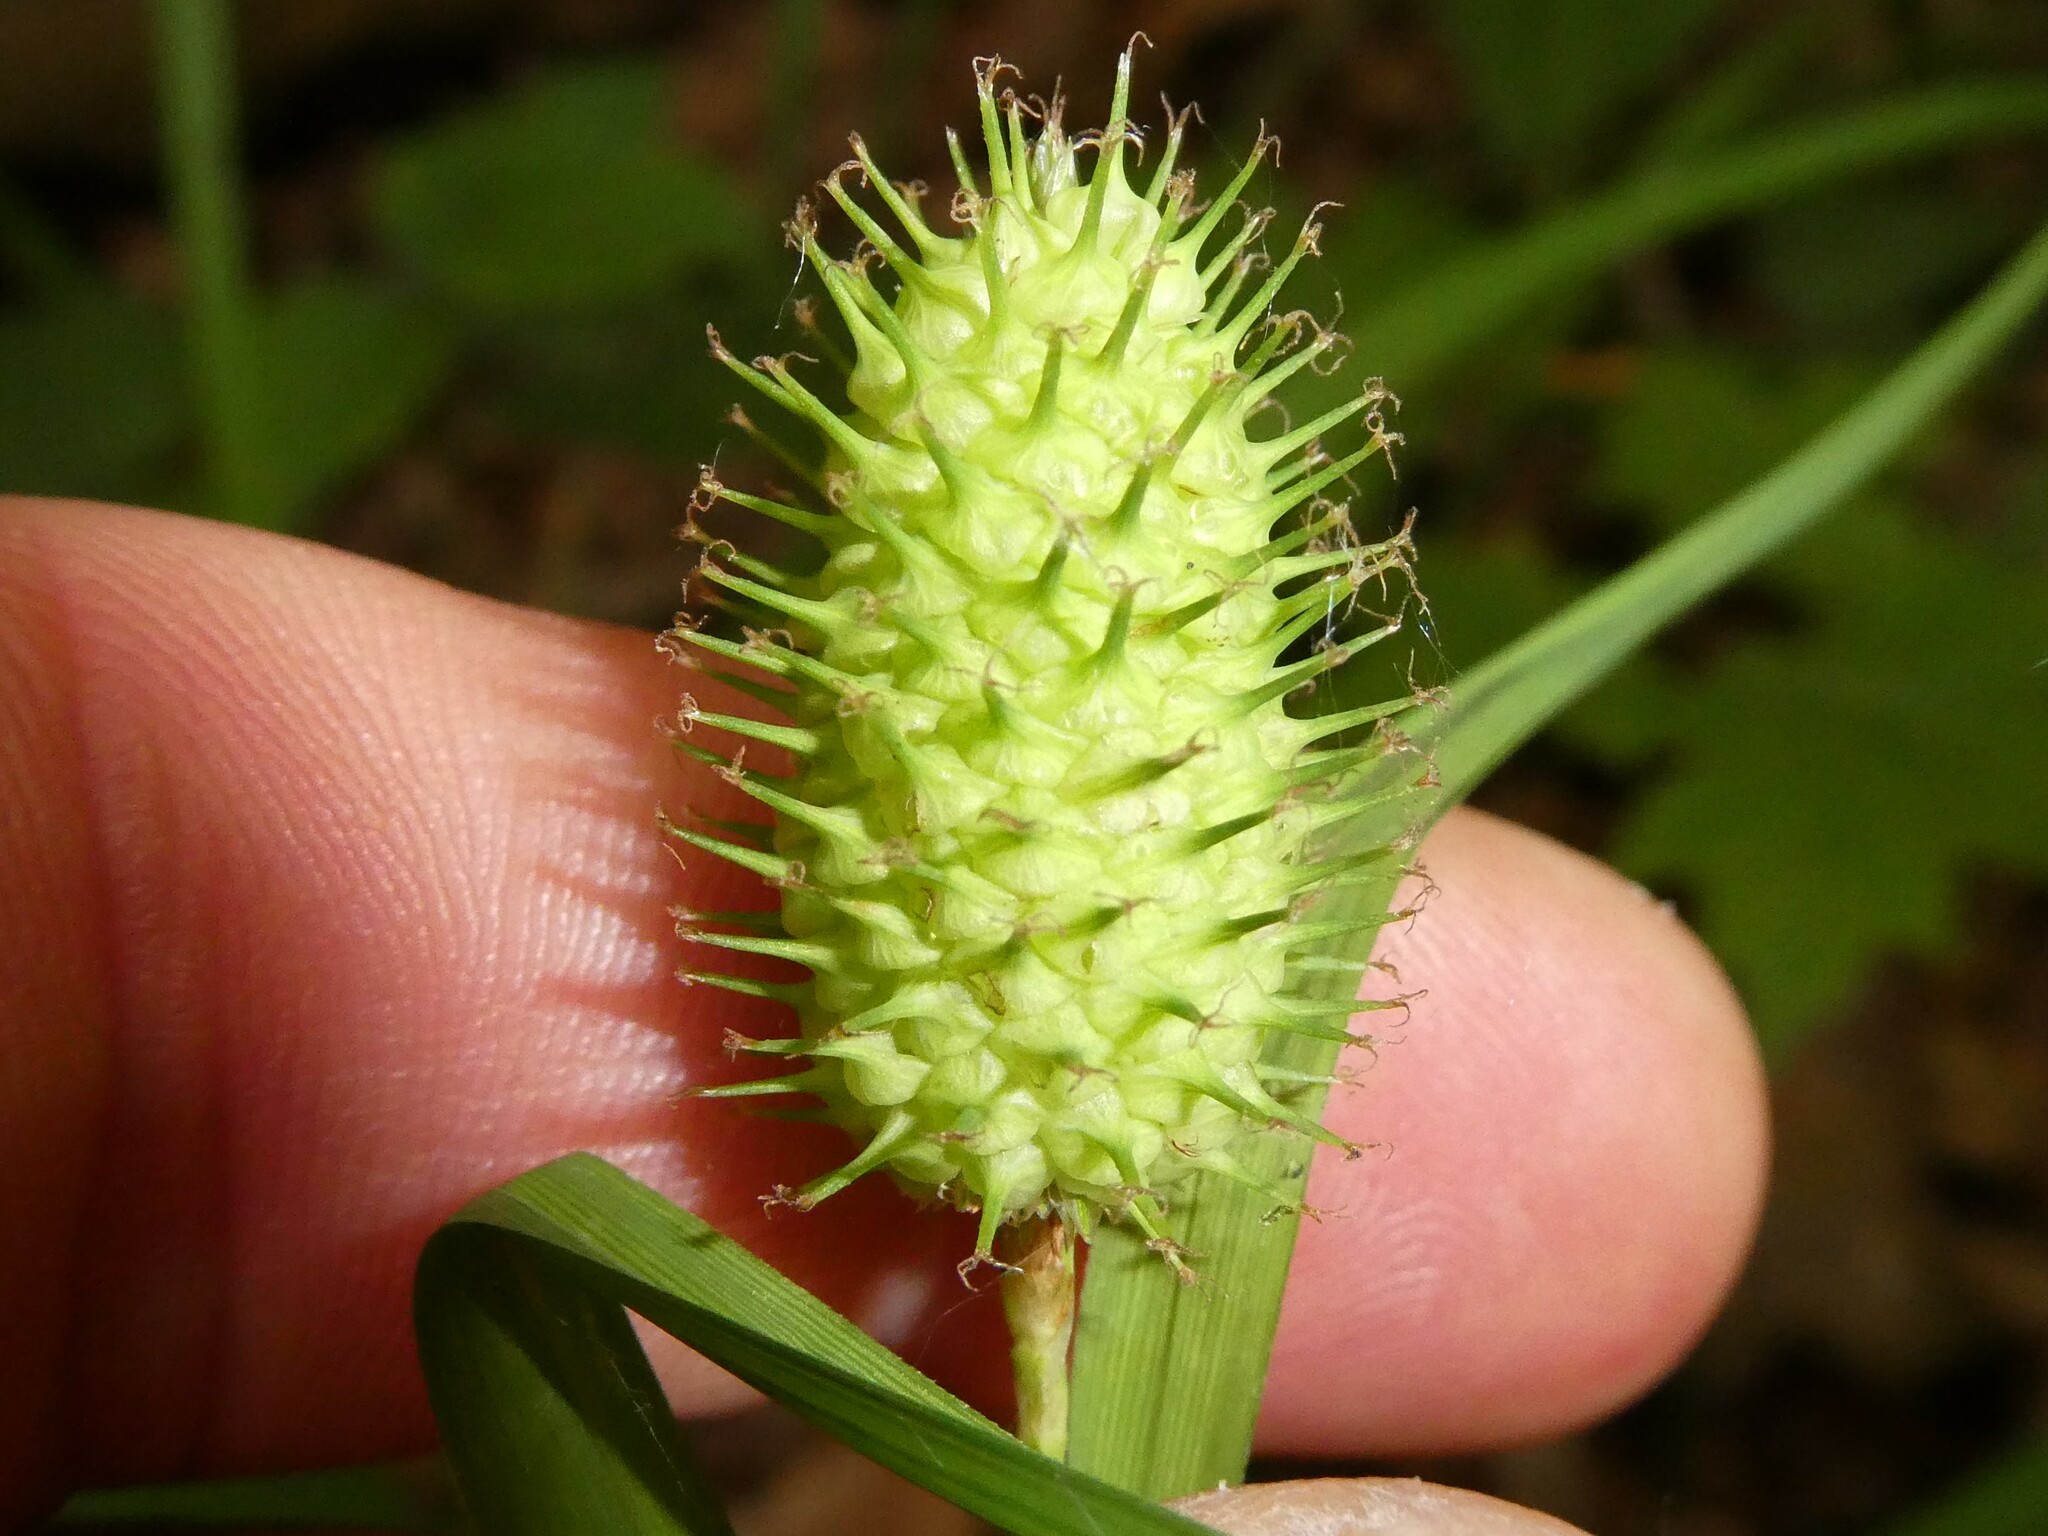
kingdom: Plantae
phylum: Tracheophyta
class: Liliopsida
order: Poales
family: Cyperaceae
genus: Carex
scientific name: Carex typhina
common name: Cattail sedge
